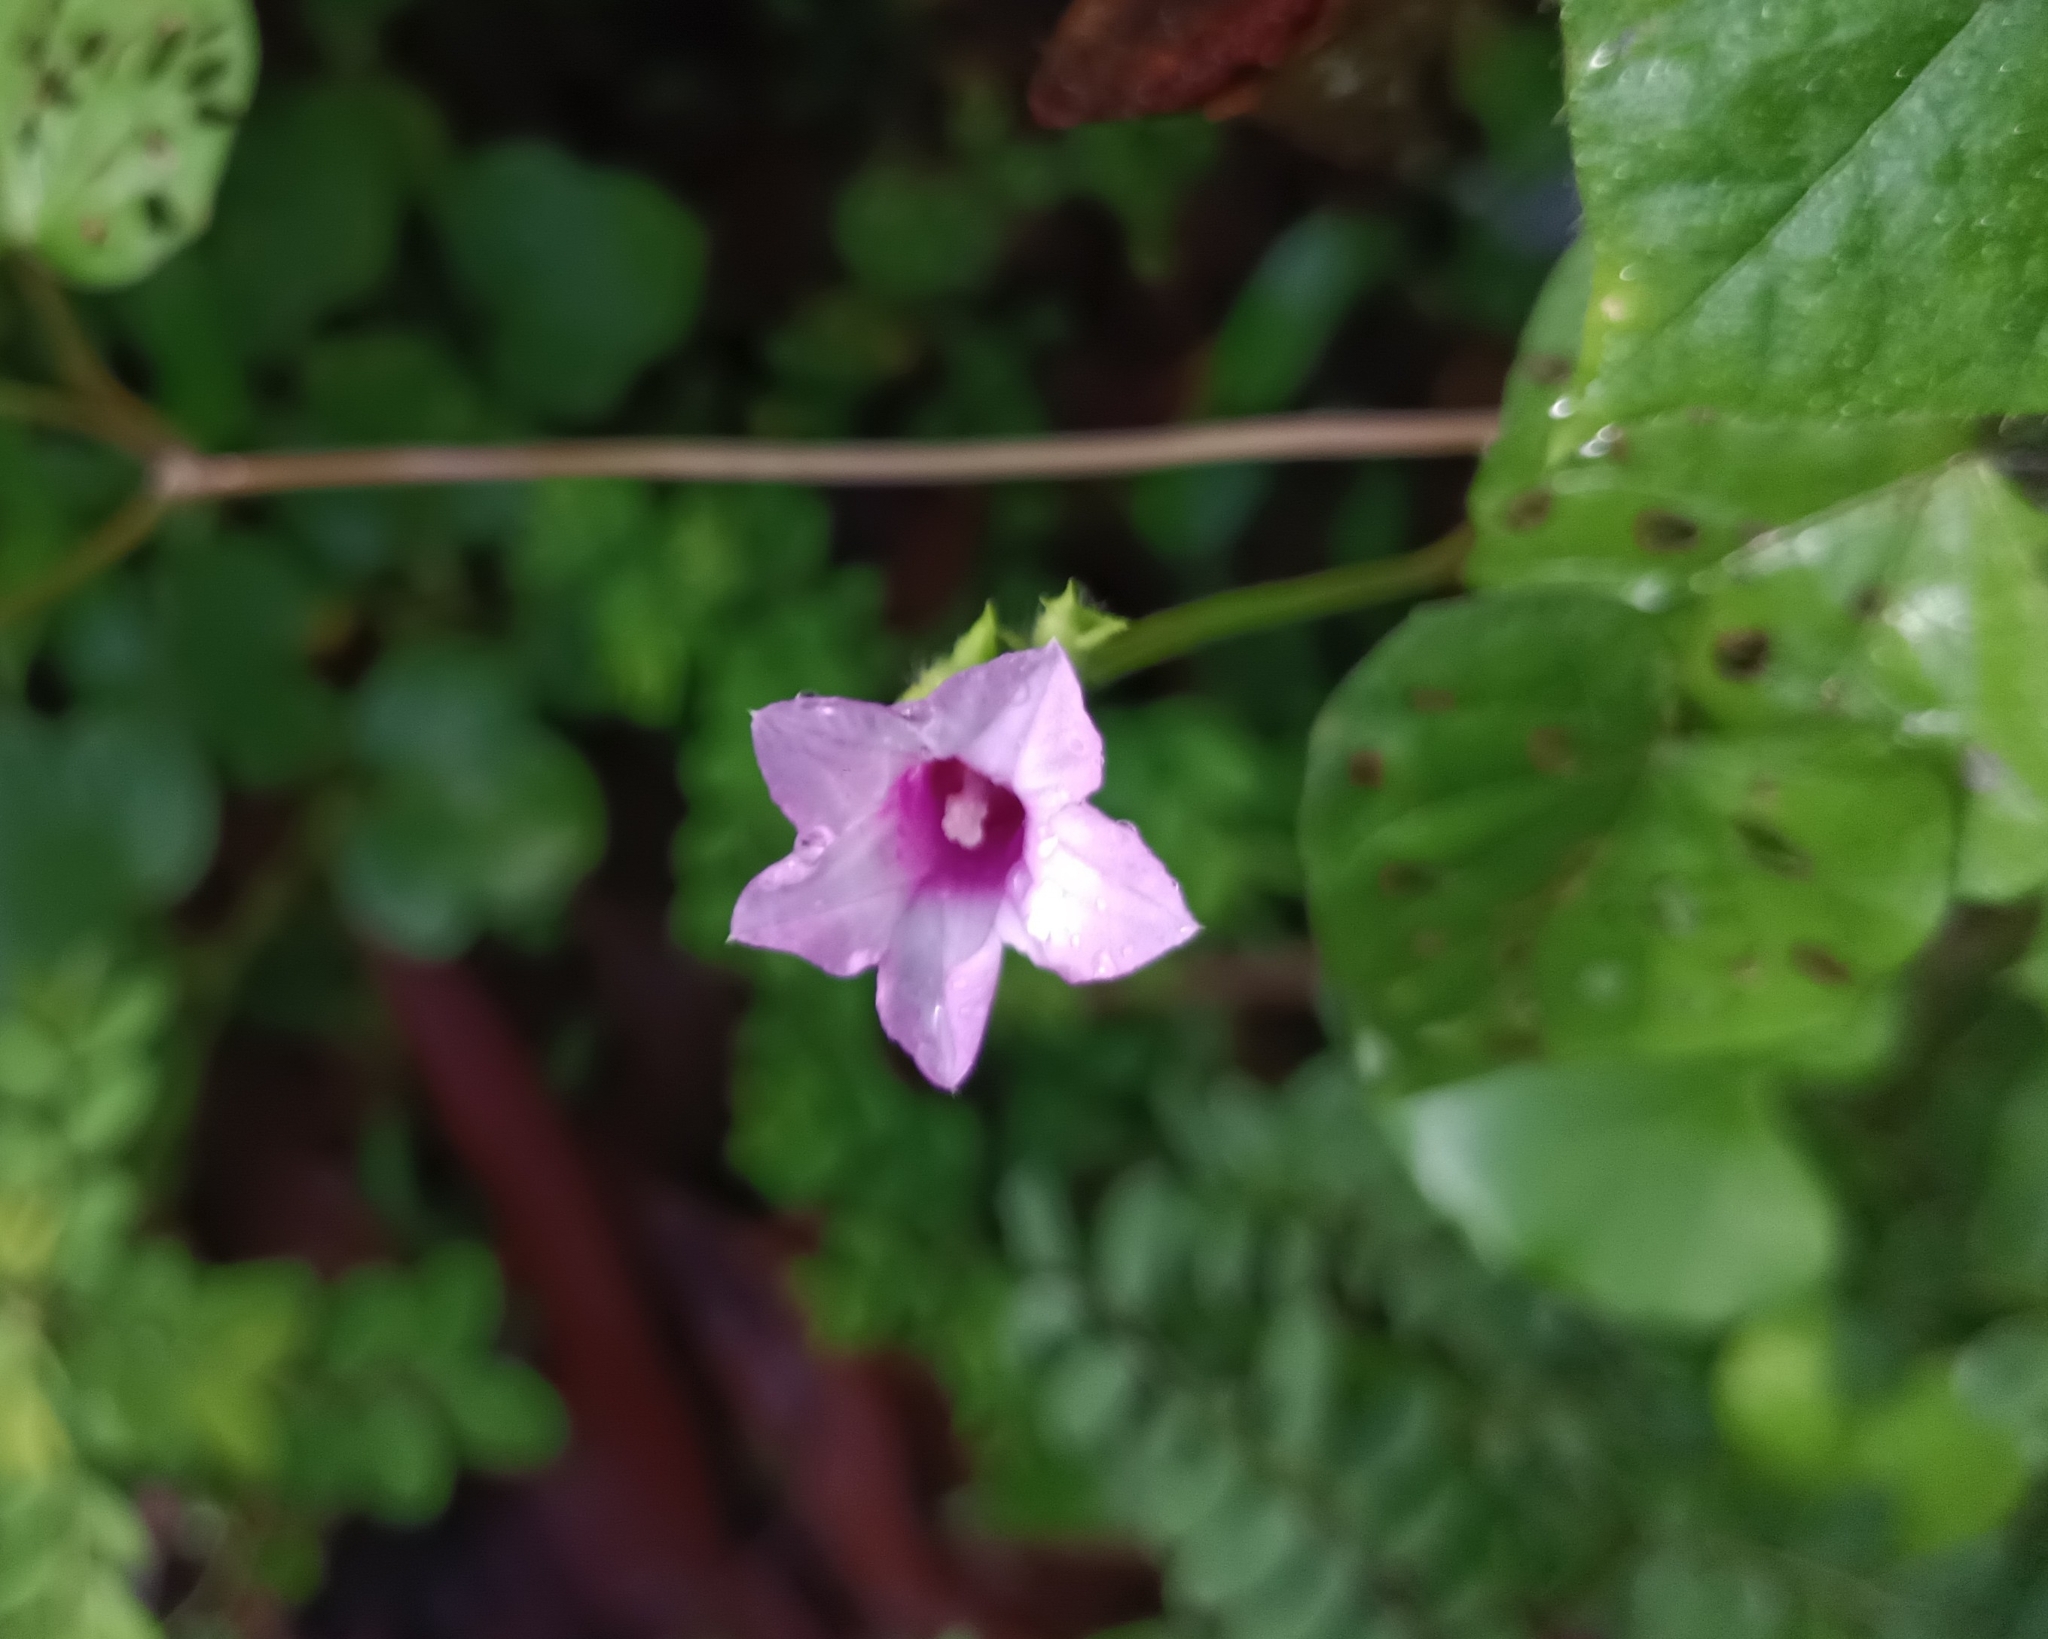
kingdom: Plantae
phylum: Tracheophyta
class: Magnoliopsida
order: Solanales
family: Convolvulaceae
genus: Ipomoea
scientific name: Ipomoea triloba
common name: Little-bell
